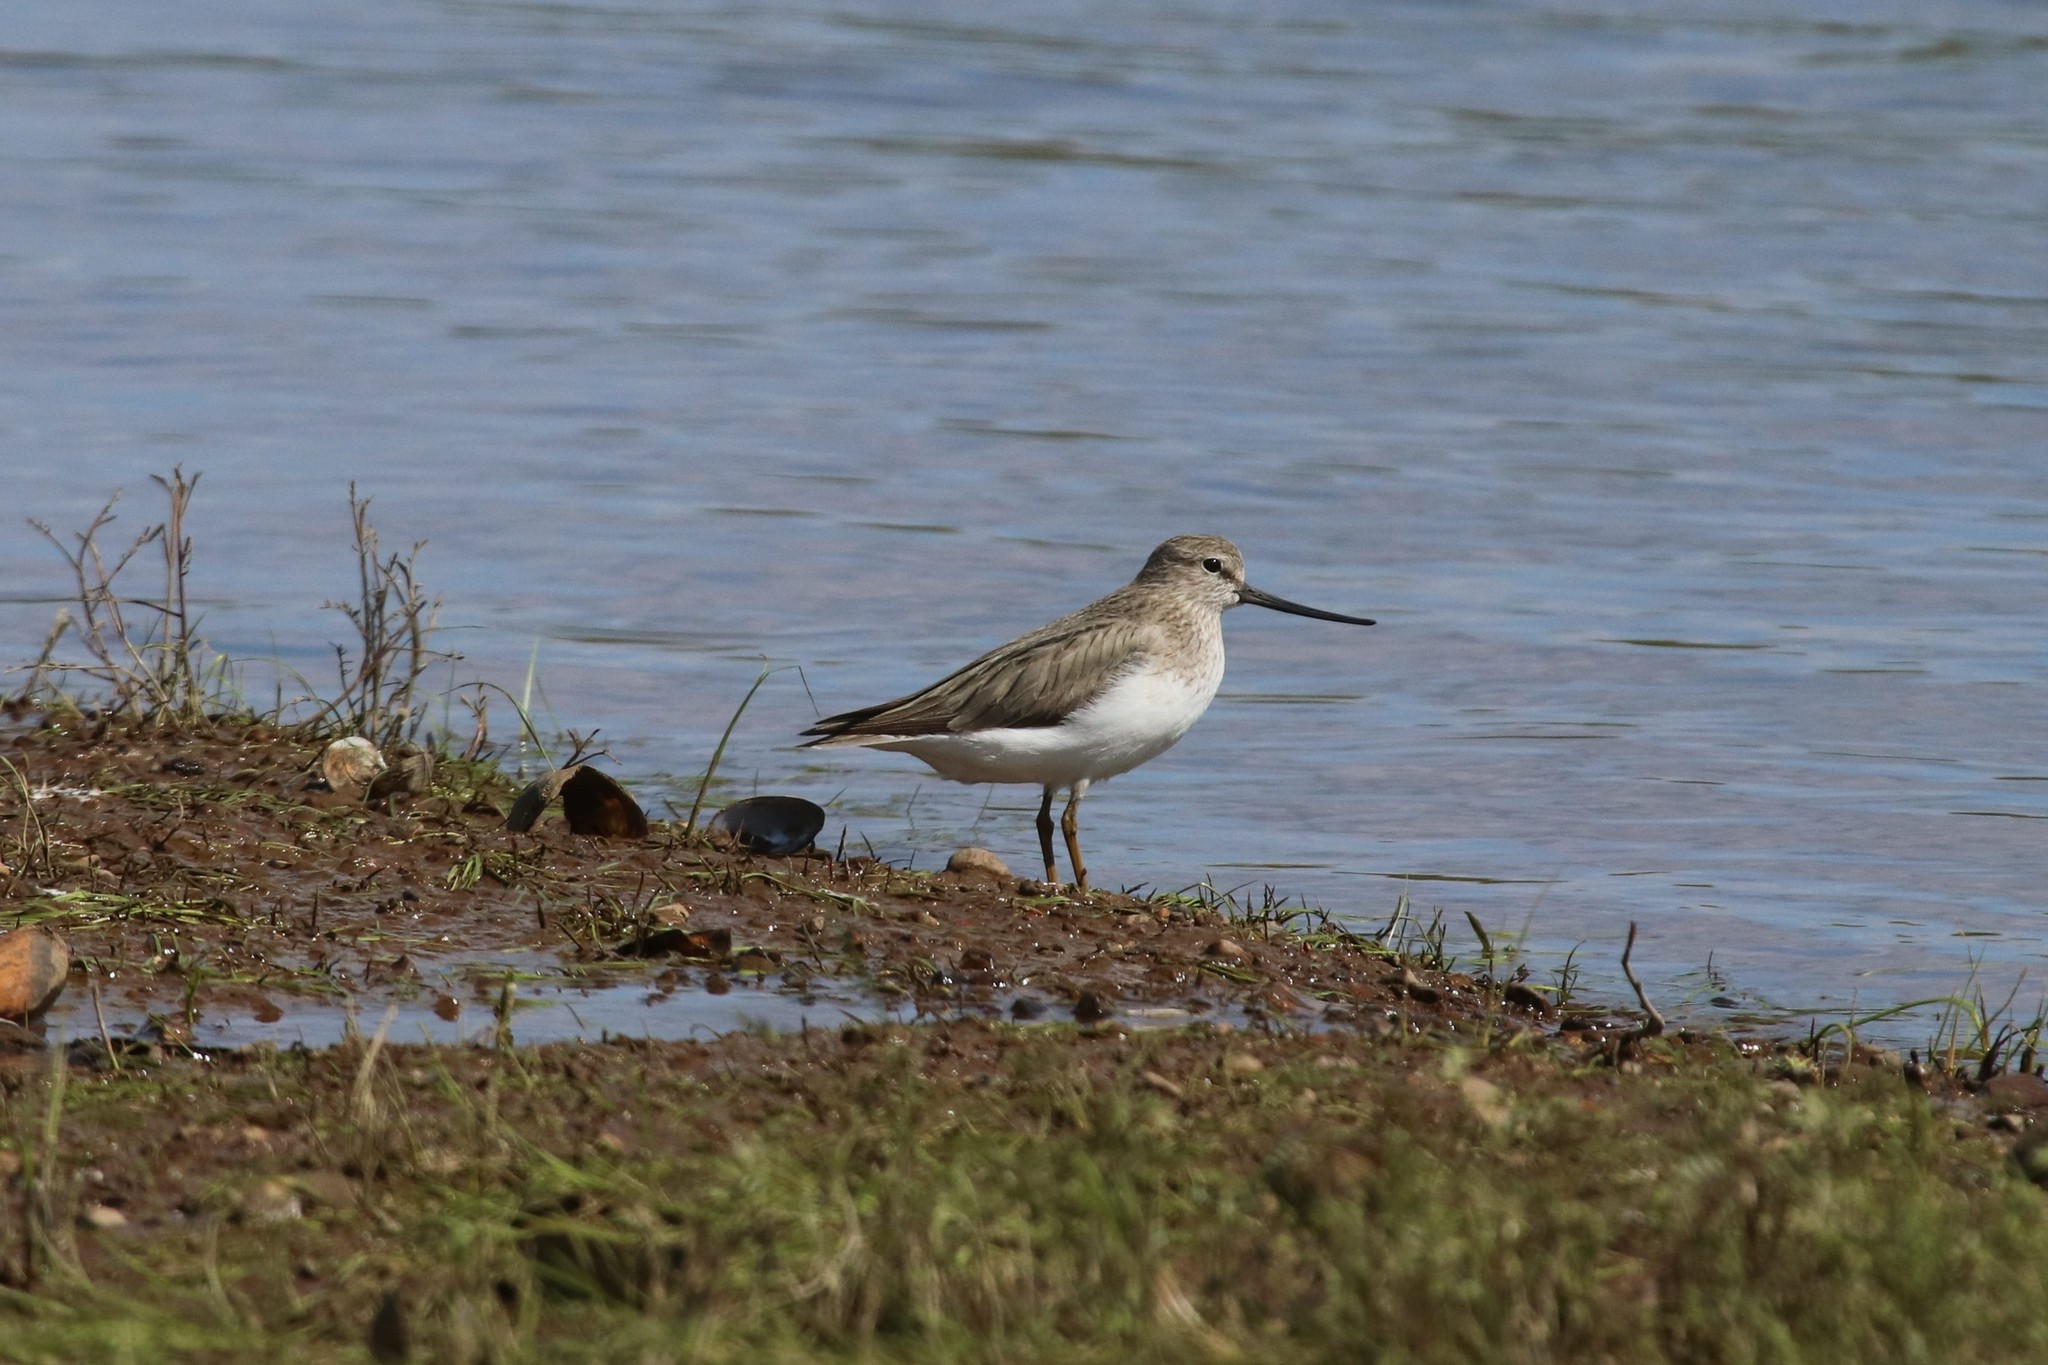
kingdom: Animalia
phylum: Chordata
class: Aves
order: Charadriiformes
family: Scolopacidae
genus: Xenus
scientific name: Xenus cinereus
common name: Terek sandpiper
